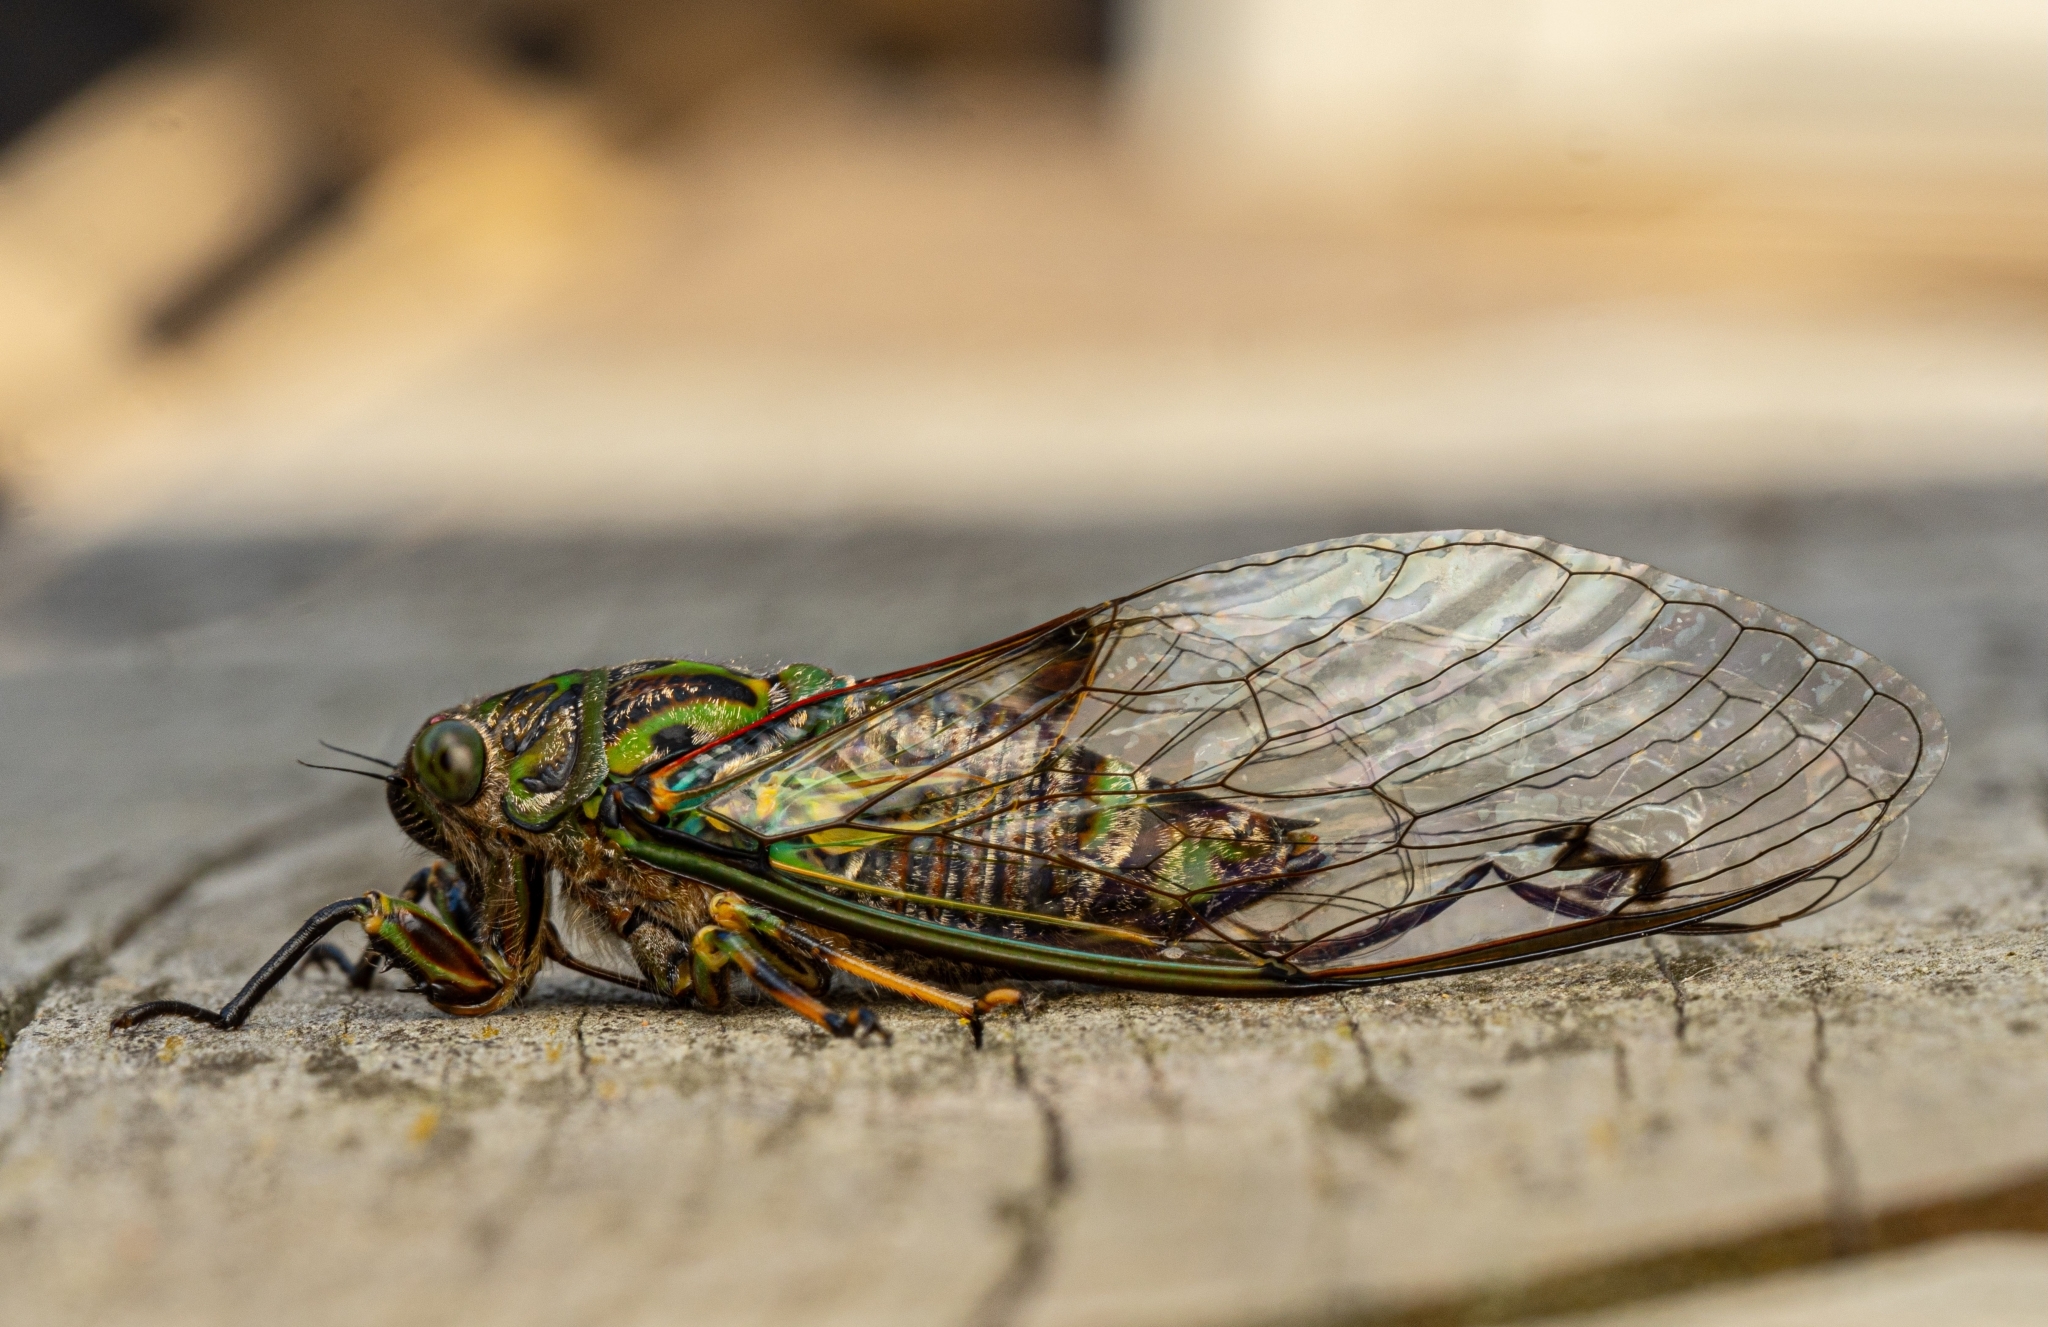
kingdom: Animalia
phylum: Arthropoda
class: Insecta
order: Hemiptera
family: Cicadidae
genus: Amphipsalta
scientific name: Amphipsalta zelandica
